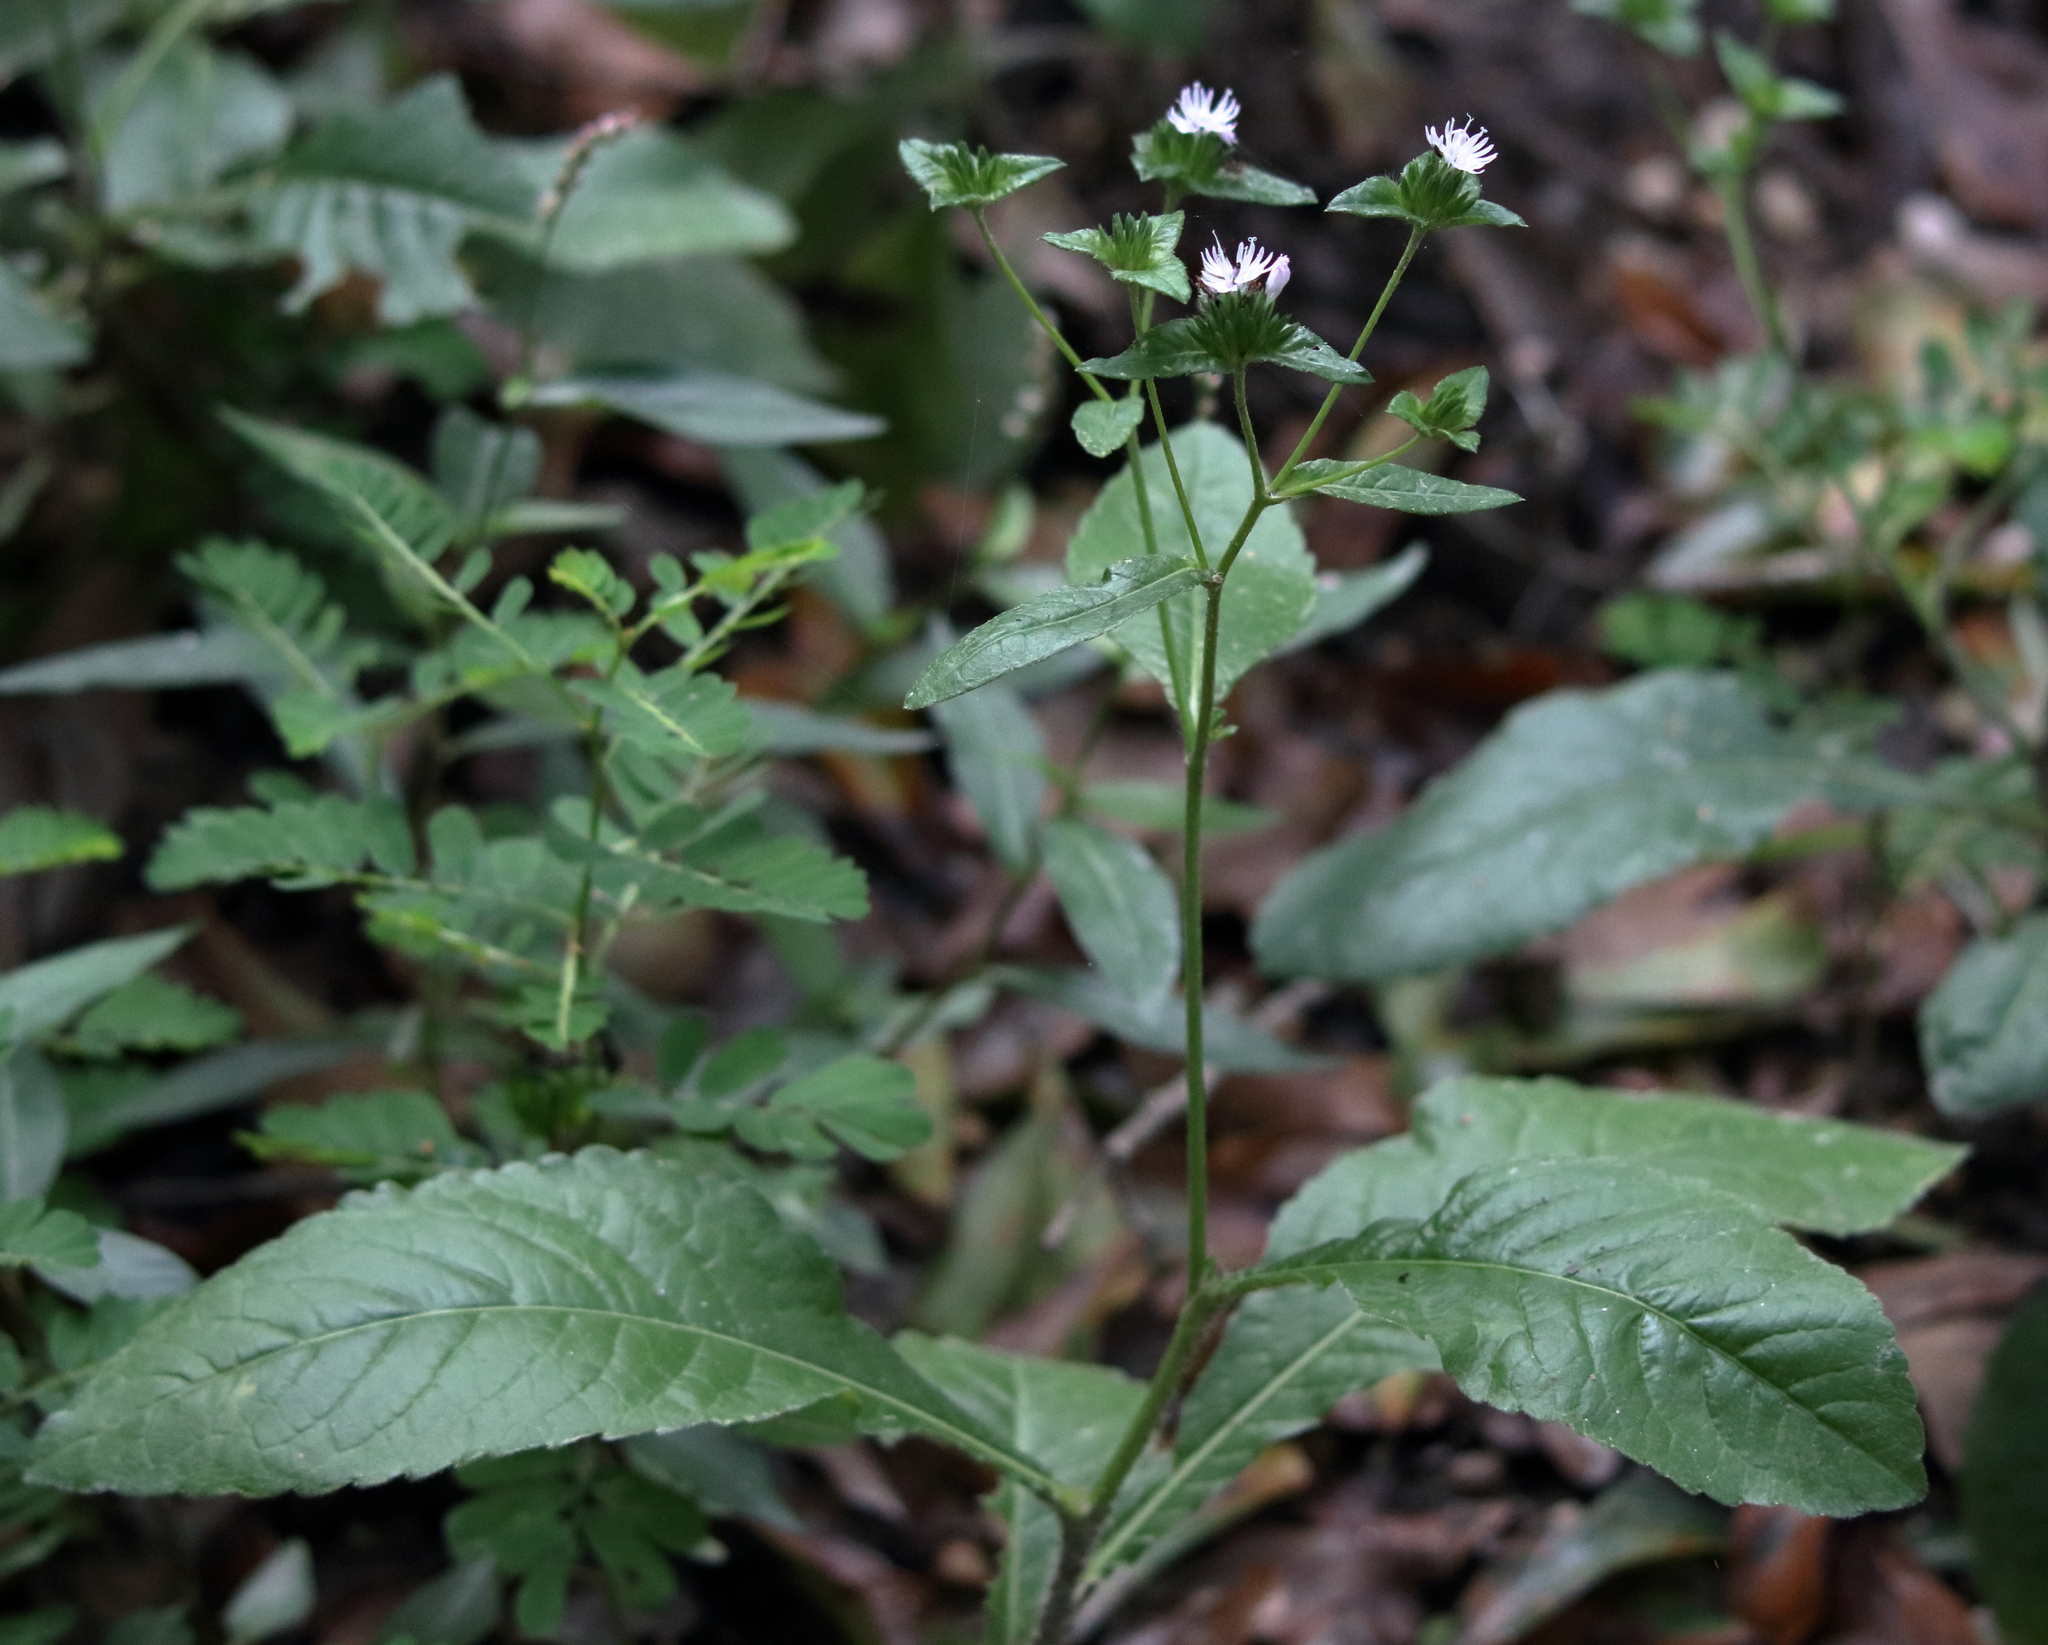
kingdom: Plantae
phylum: Tracheophyta
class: Magnoliopsida
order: Asterales
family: Asteraceae
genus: Elephantopus
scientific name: Elephantopus carolinianus
